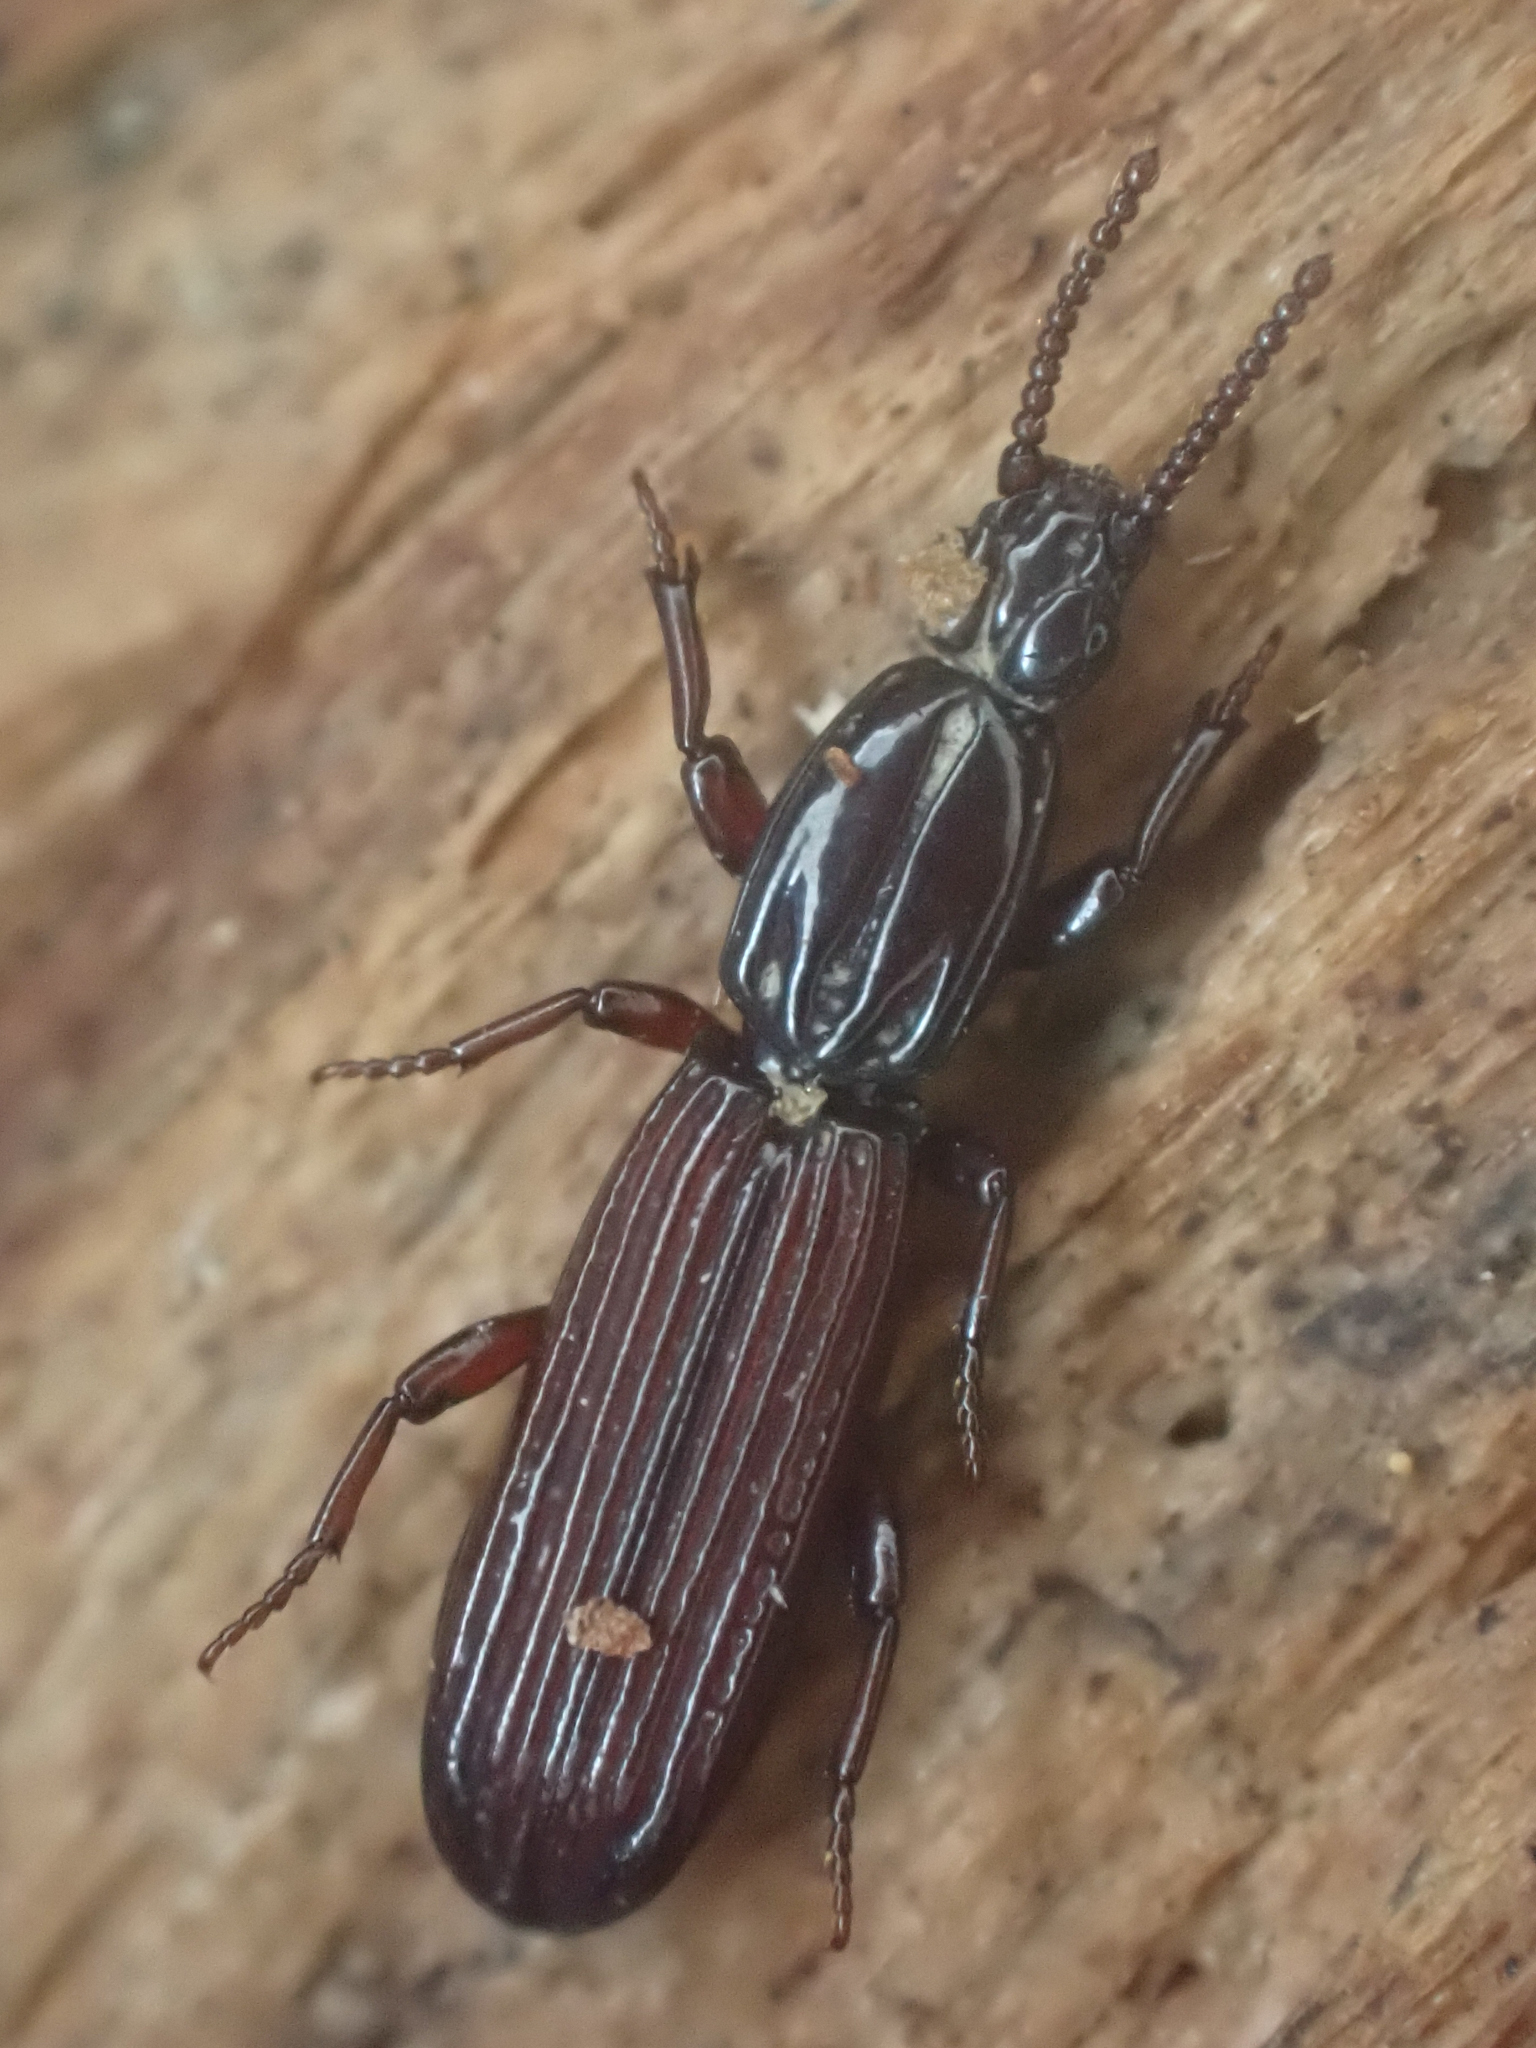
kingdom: Animalia
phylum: Arthropoda
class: Insecta
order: Coleoptera
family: Carabidae
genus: Clinidium
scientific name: Clinidium calcaratum
